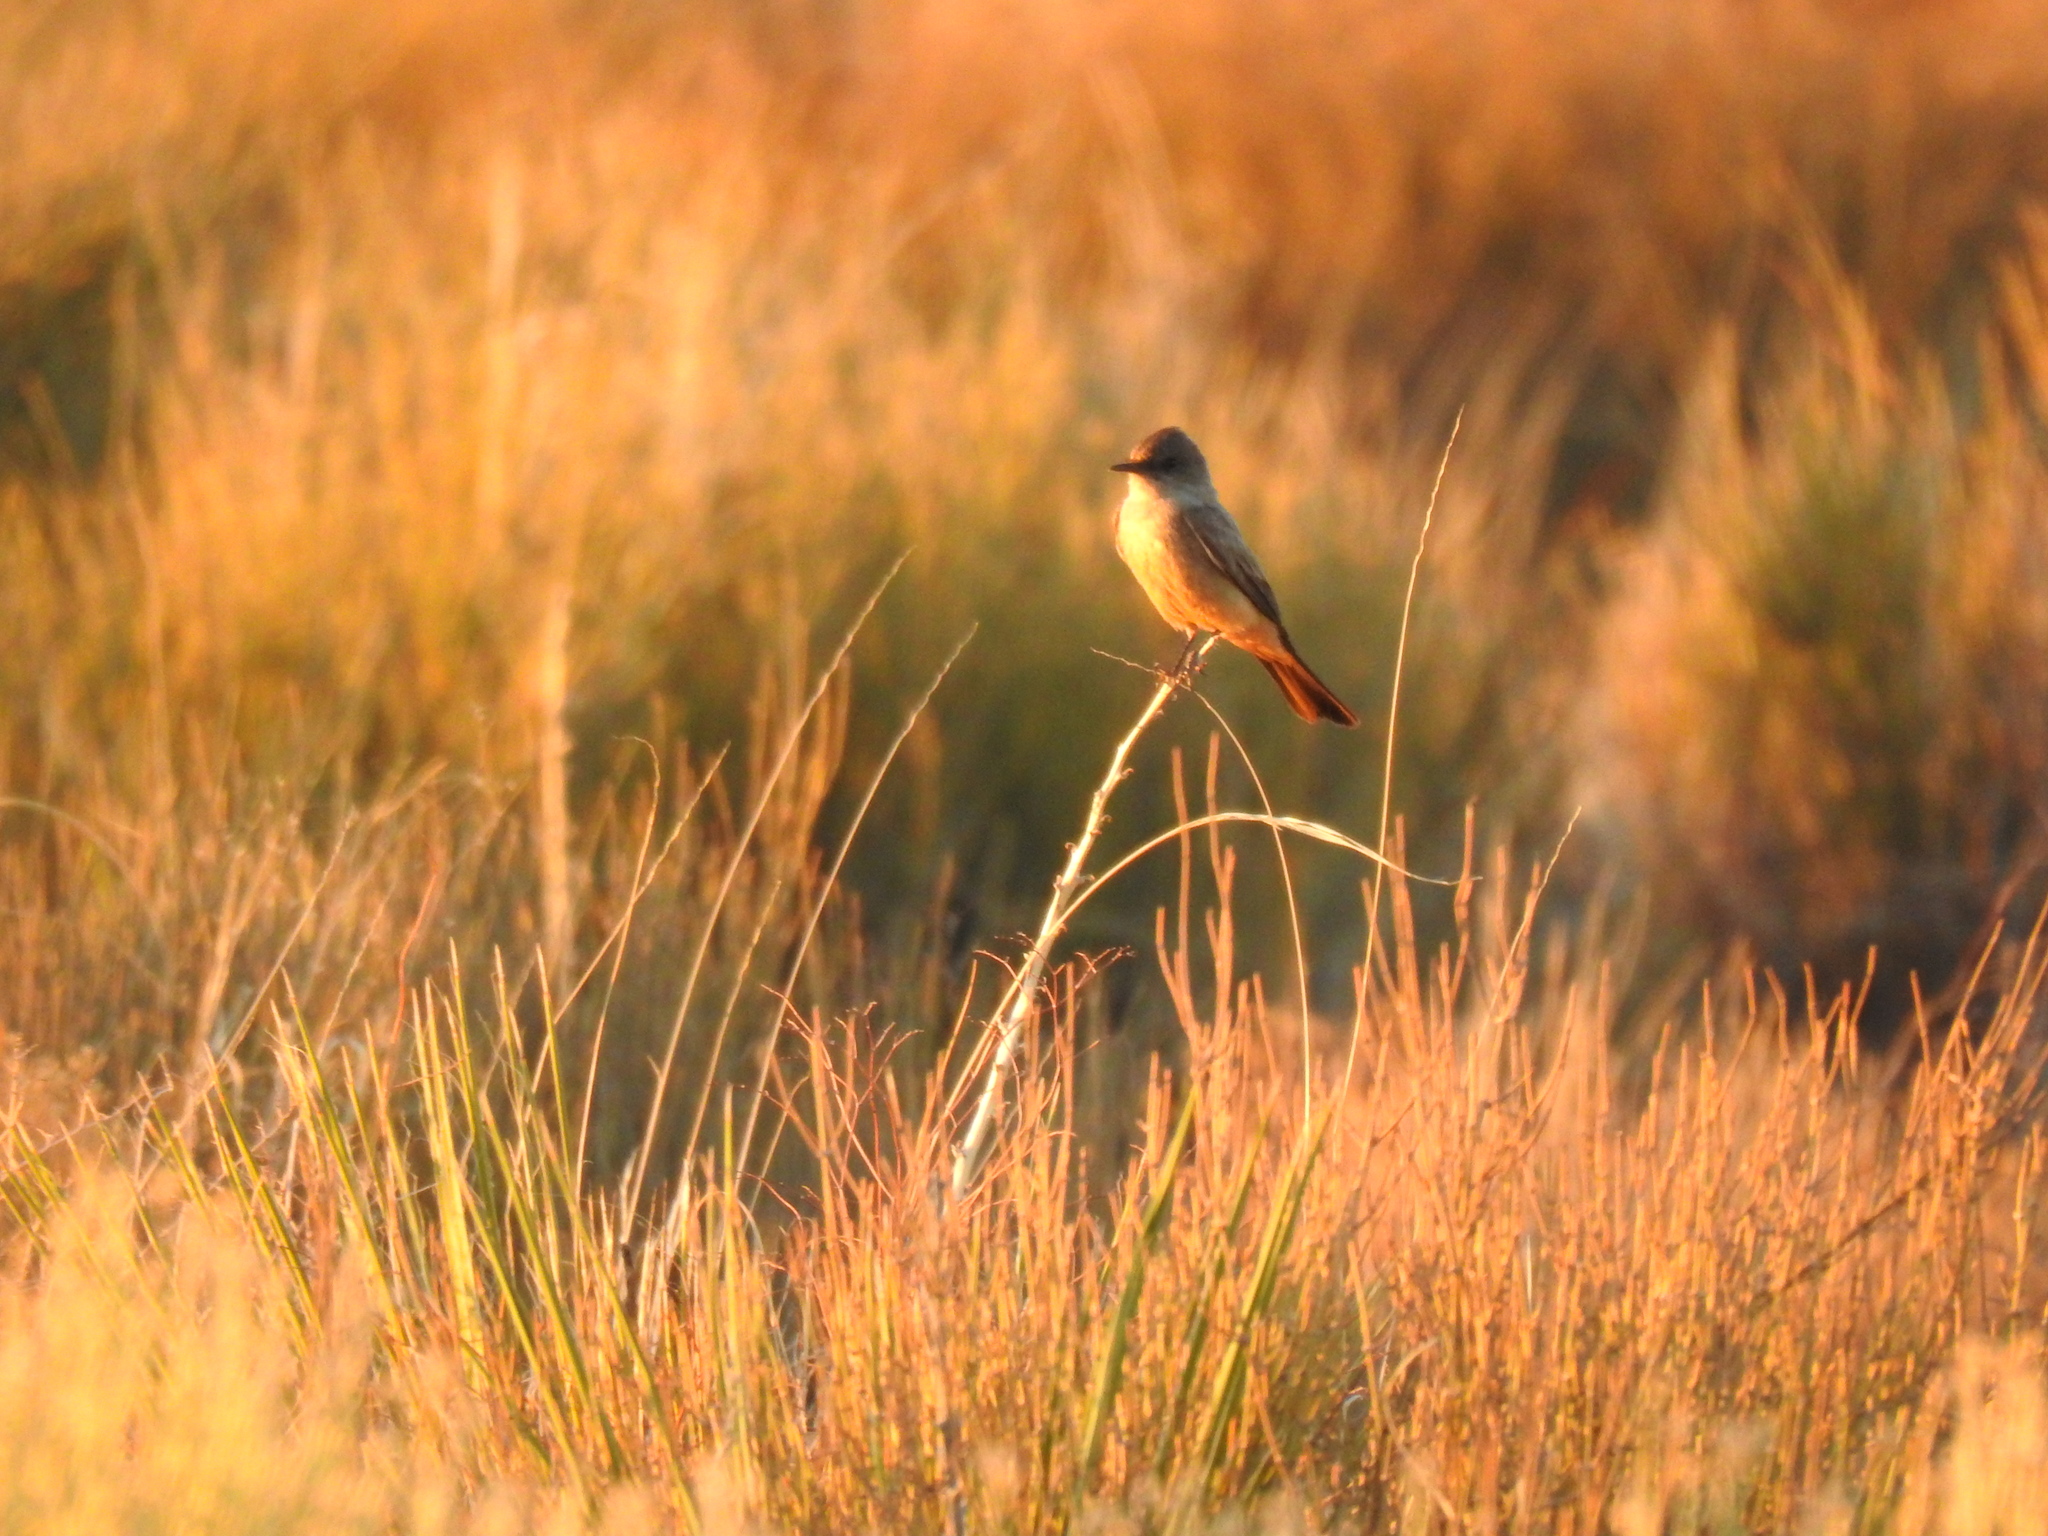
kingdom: Animalia
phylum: Chordata
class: Aves
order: Passeriformes
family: Tyrannidae
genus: Sayornis
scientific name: Sayornis saya
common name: Say's phoebe
